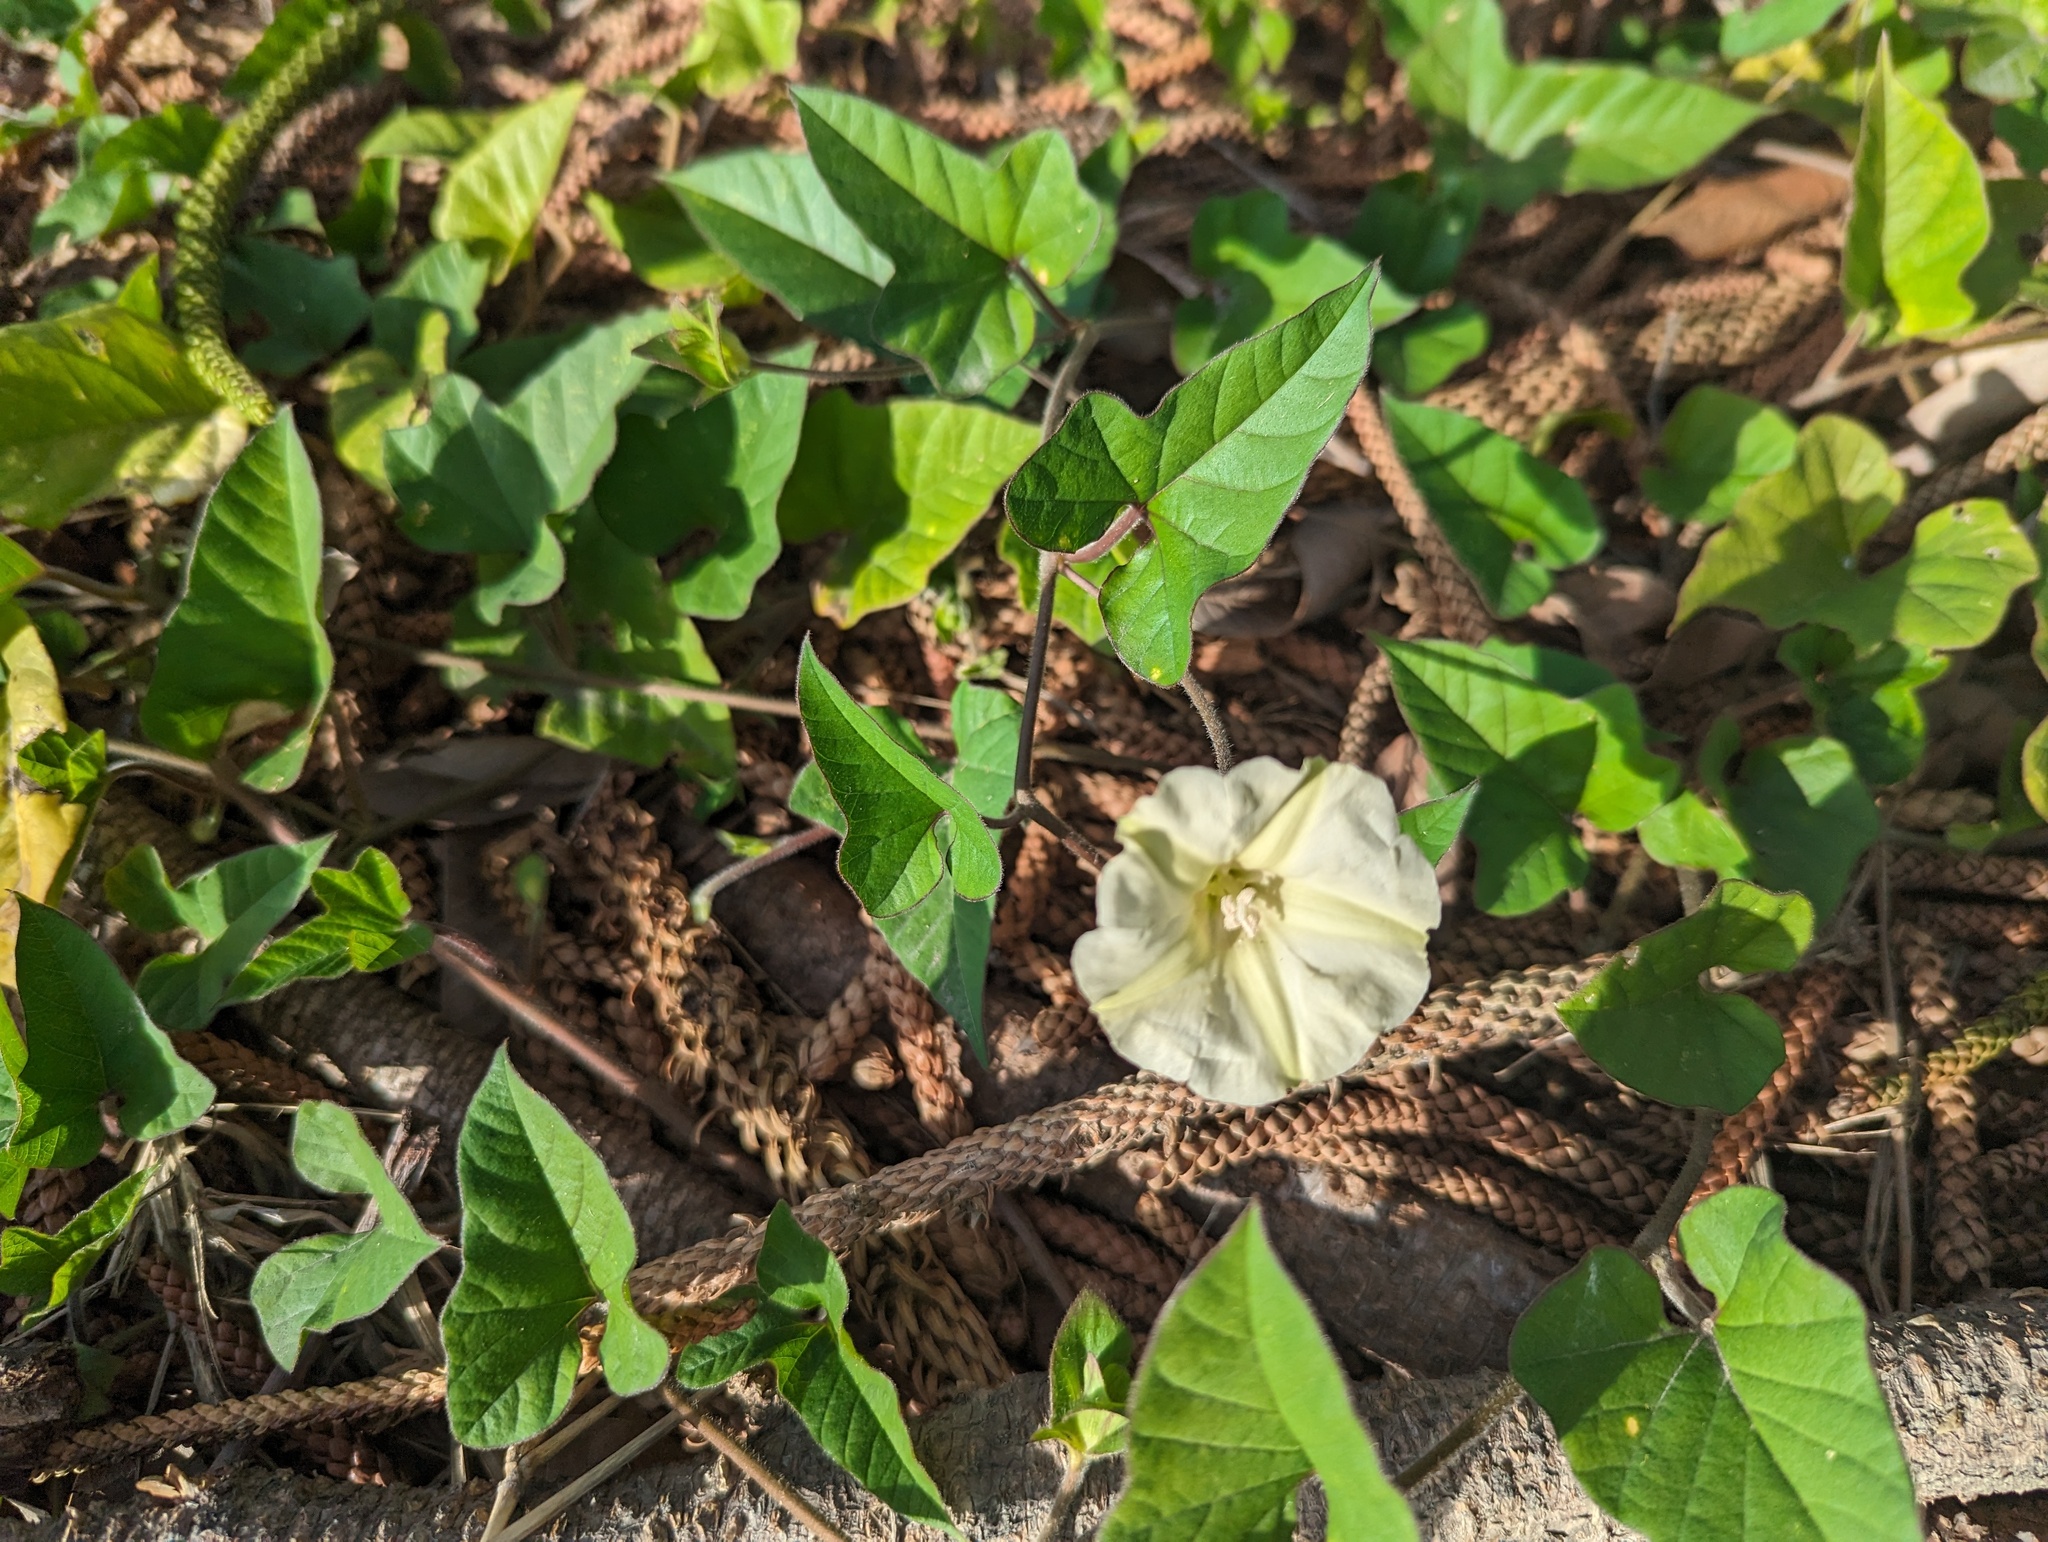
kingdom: Plantae
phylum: Tracheophyta
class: Magnoliopsida
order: Solanales
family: Convolvulaceae
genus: Hewittia
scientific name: Hewittia malabarica
